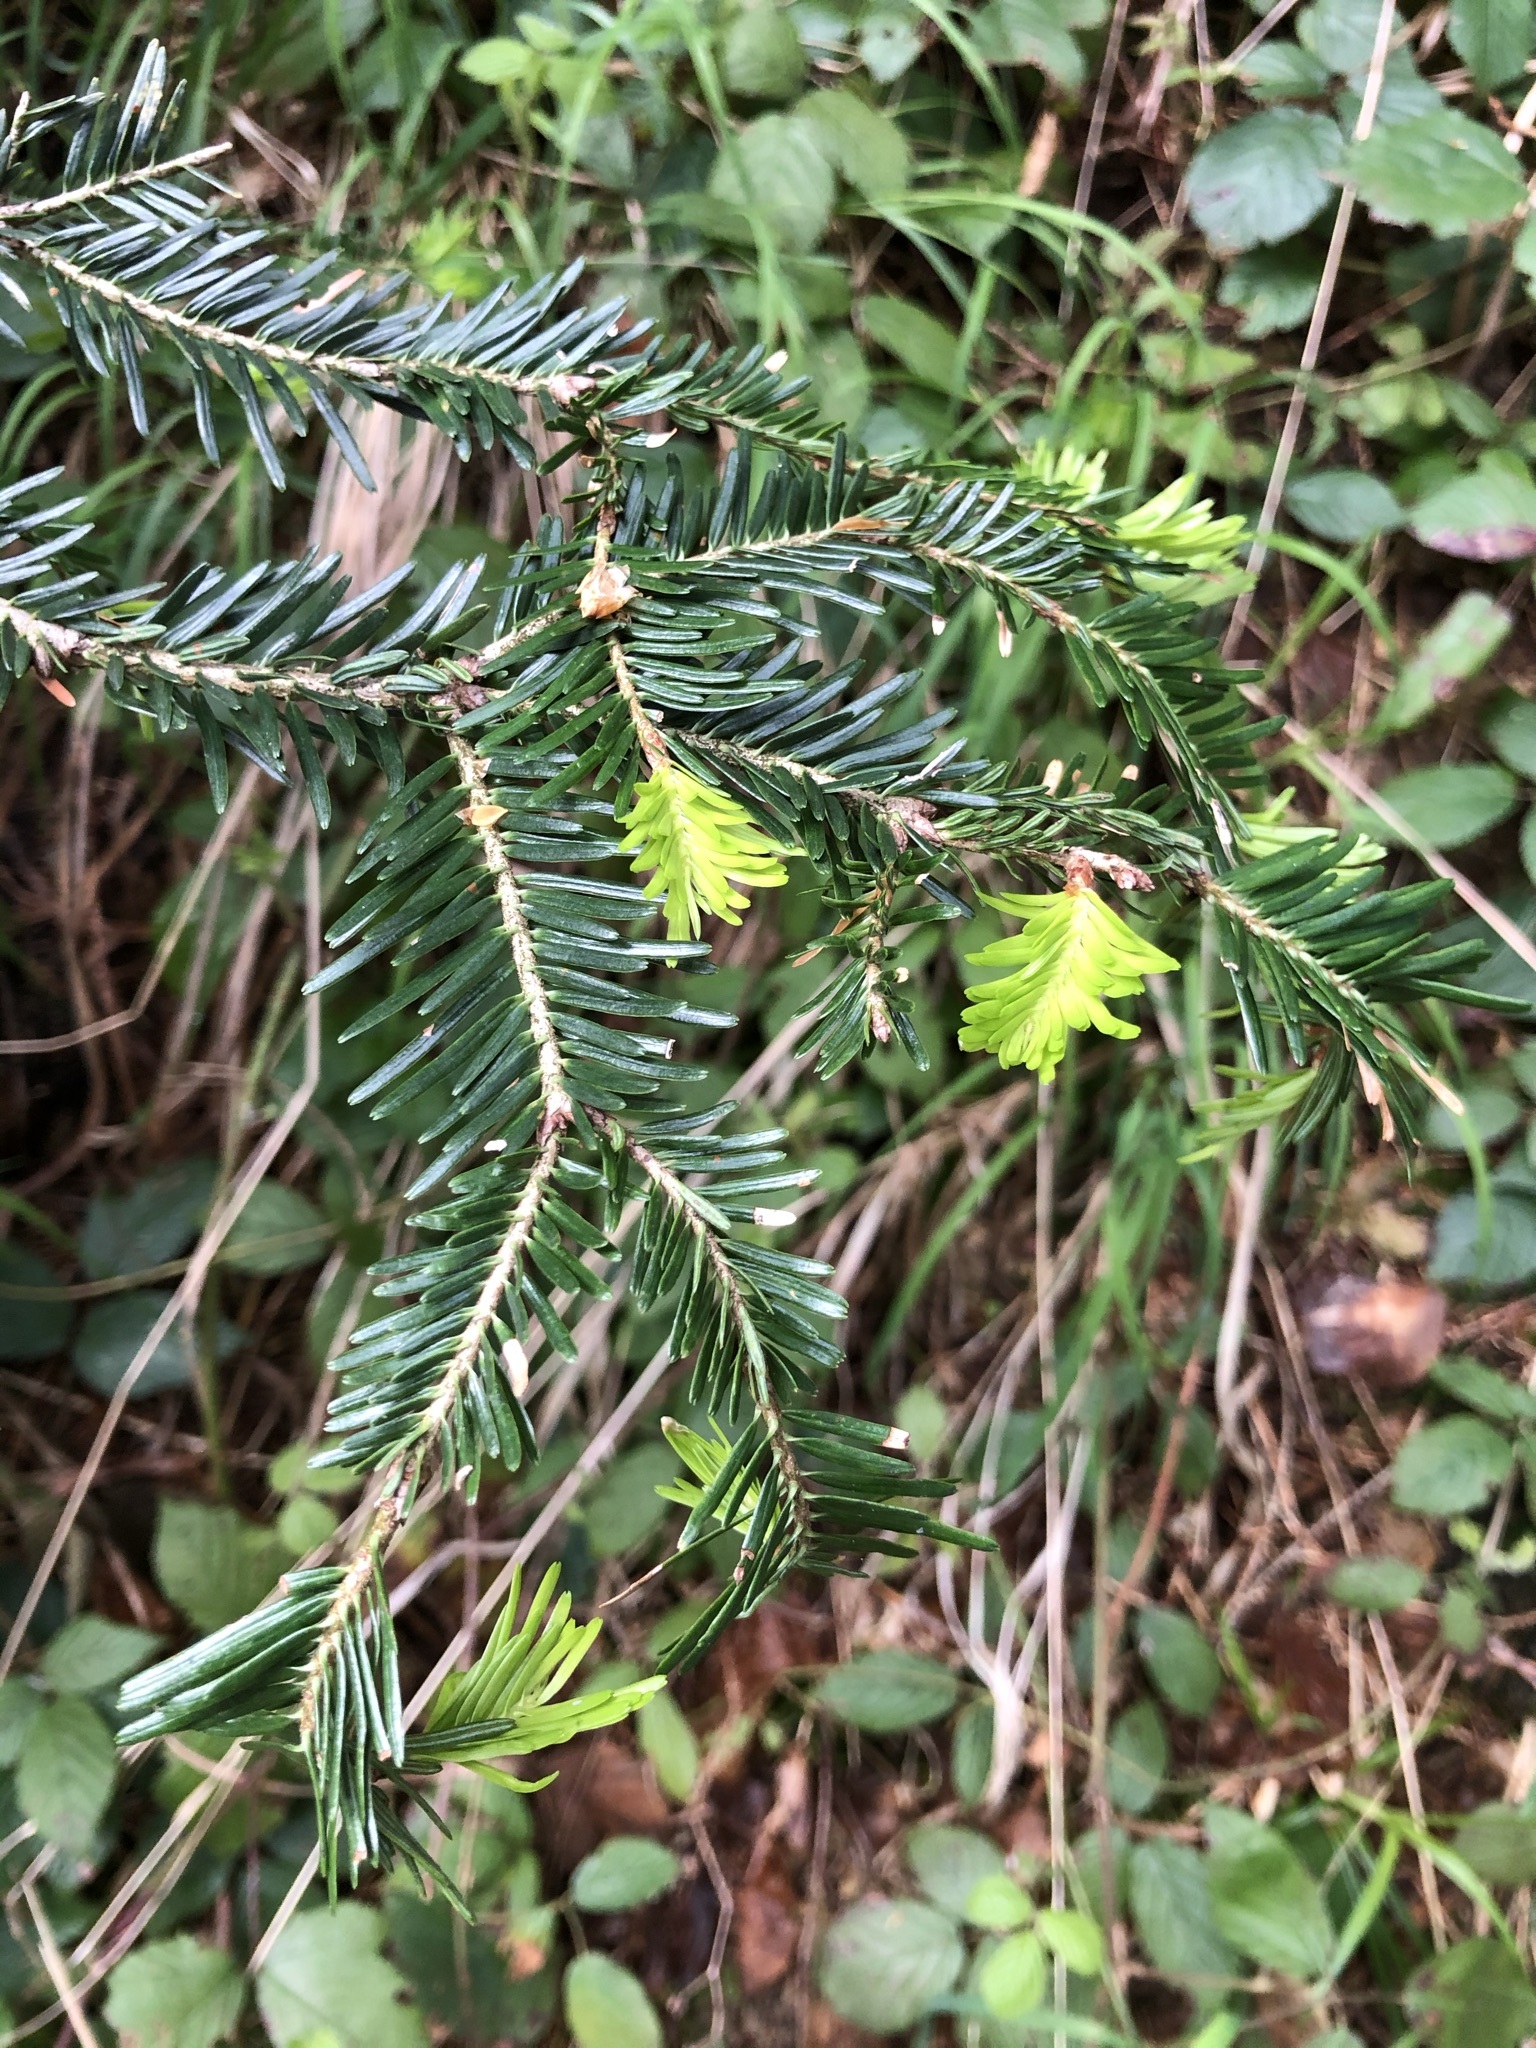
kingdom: Plantae
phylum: Tracheophyta
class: Pinopsida
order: Pinales
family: Pinaceae
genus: Abies
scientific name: Abies alba
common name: Silver fir
